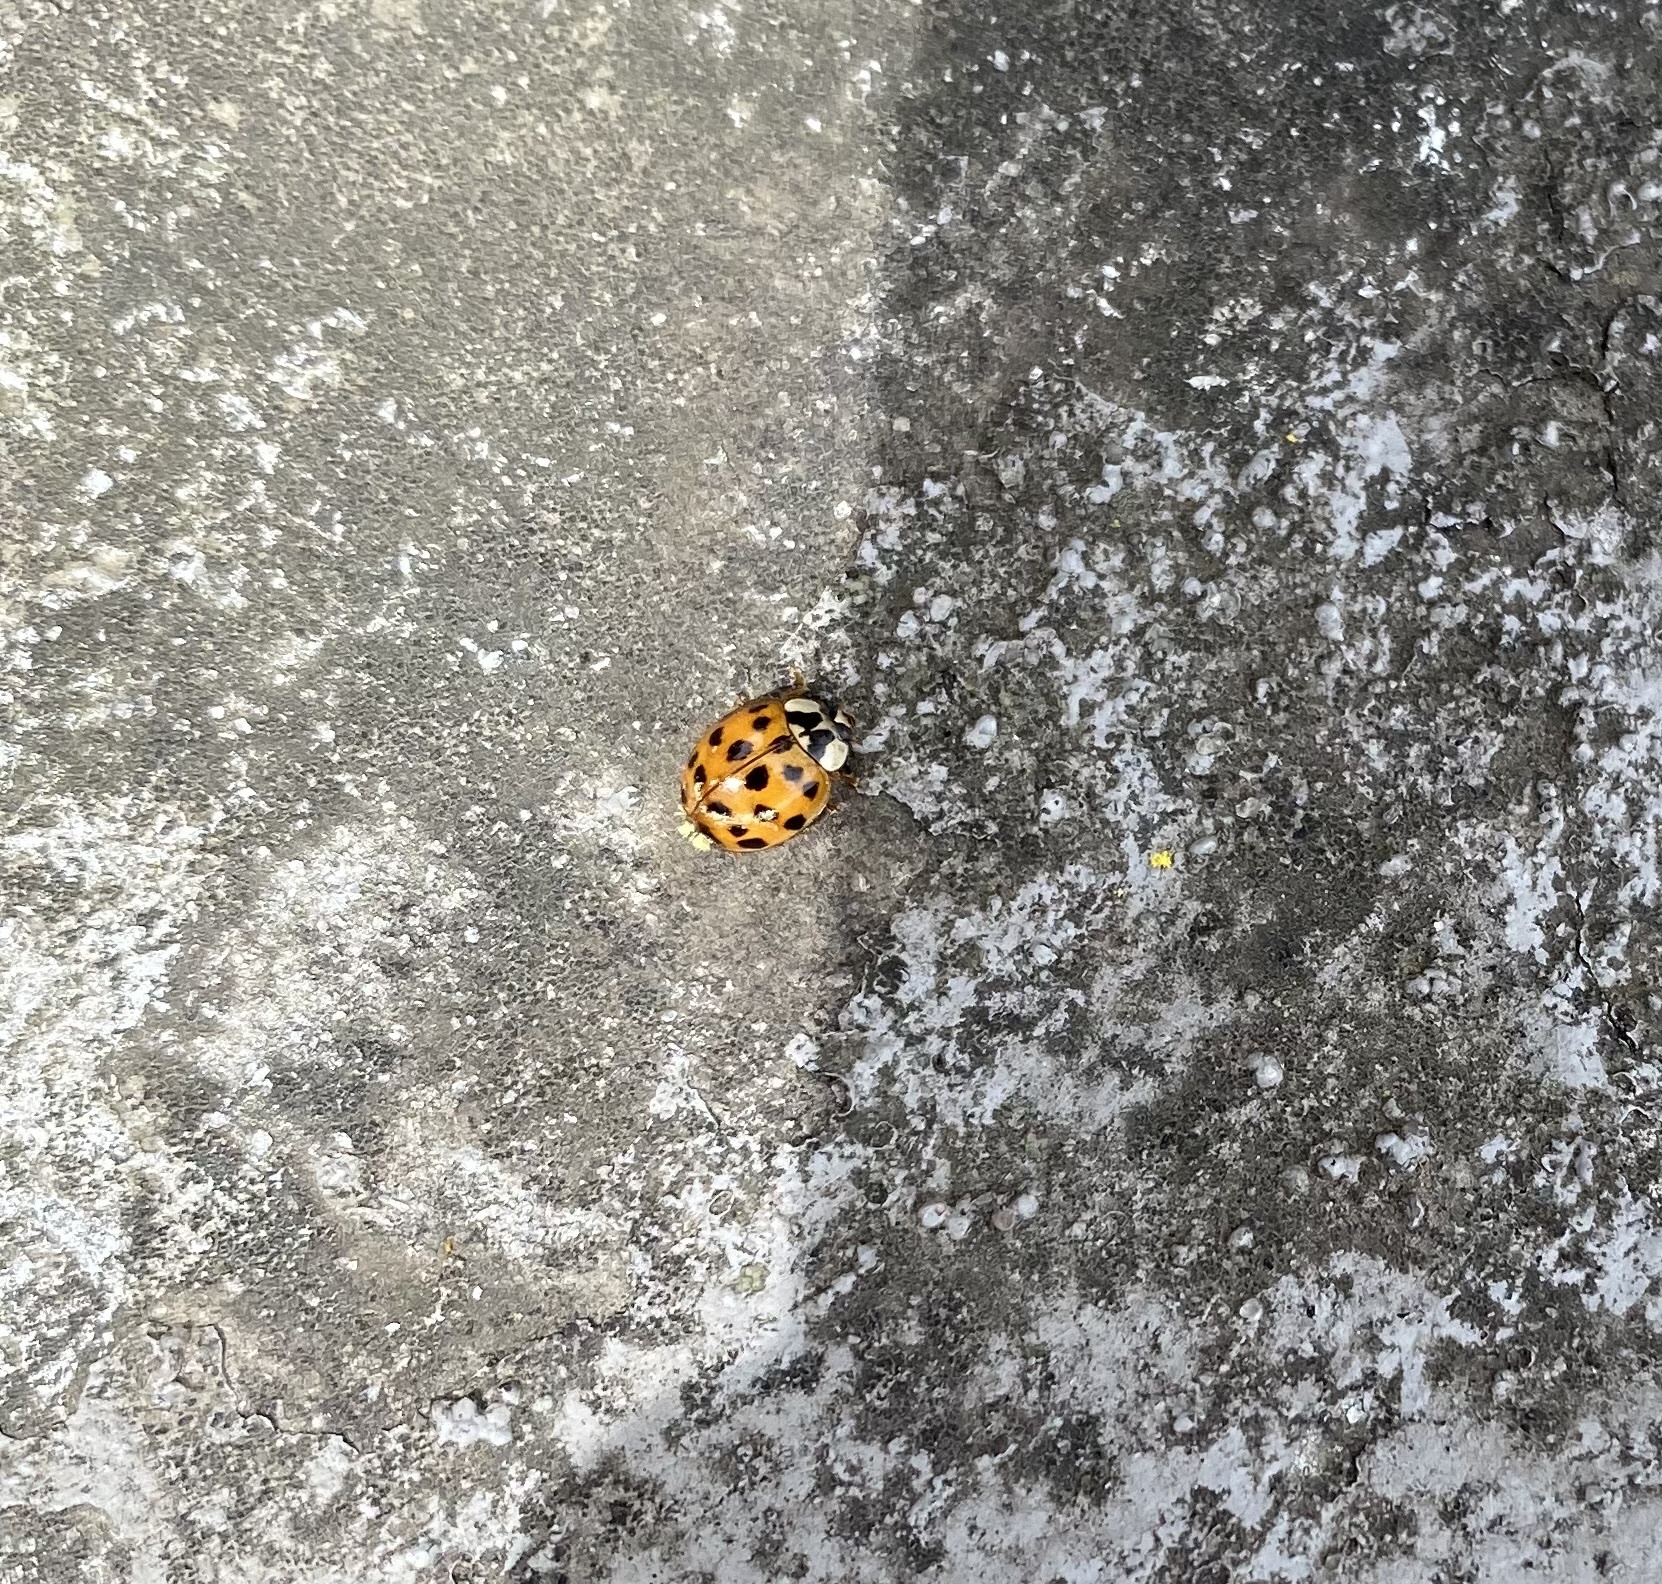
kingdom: Animalia
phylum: Arthropoda
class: Insecta
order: Coleoptera
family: Coccinellidae
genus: Harmonia
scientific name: Harmonia axyridis
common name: Harlequin ladybird
